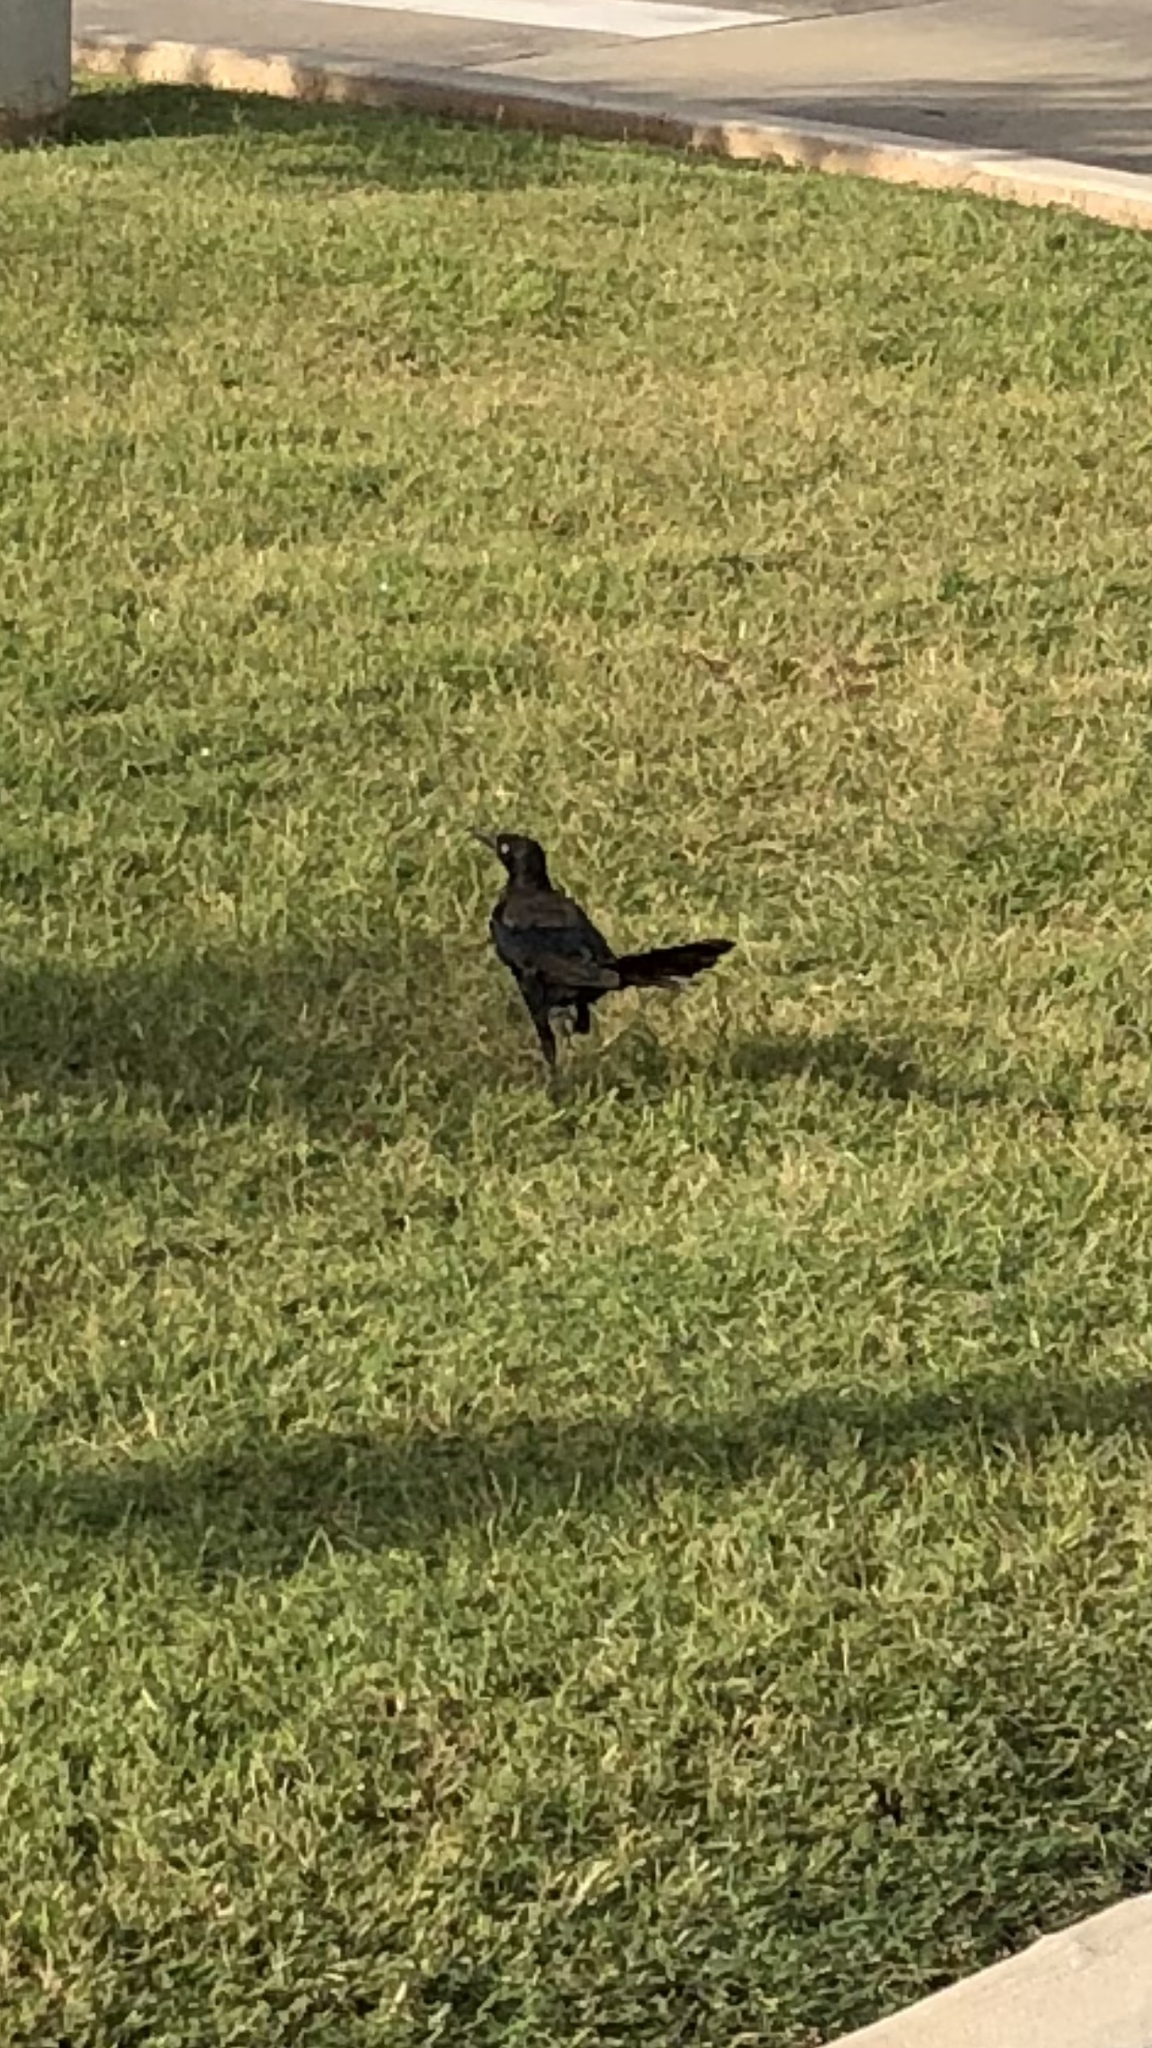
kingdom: Animalia
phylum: Chordata
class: Aves
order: Passeriformes
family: Icteridae
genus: Quiscalus
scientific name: Quiscalus mexicanus
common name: Great-tailed grackle
